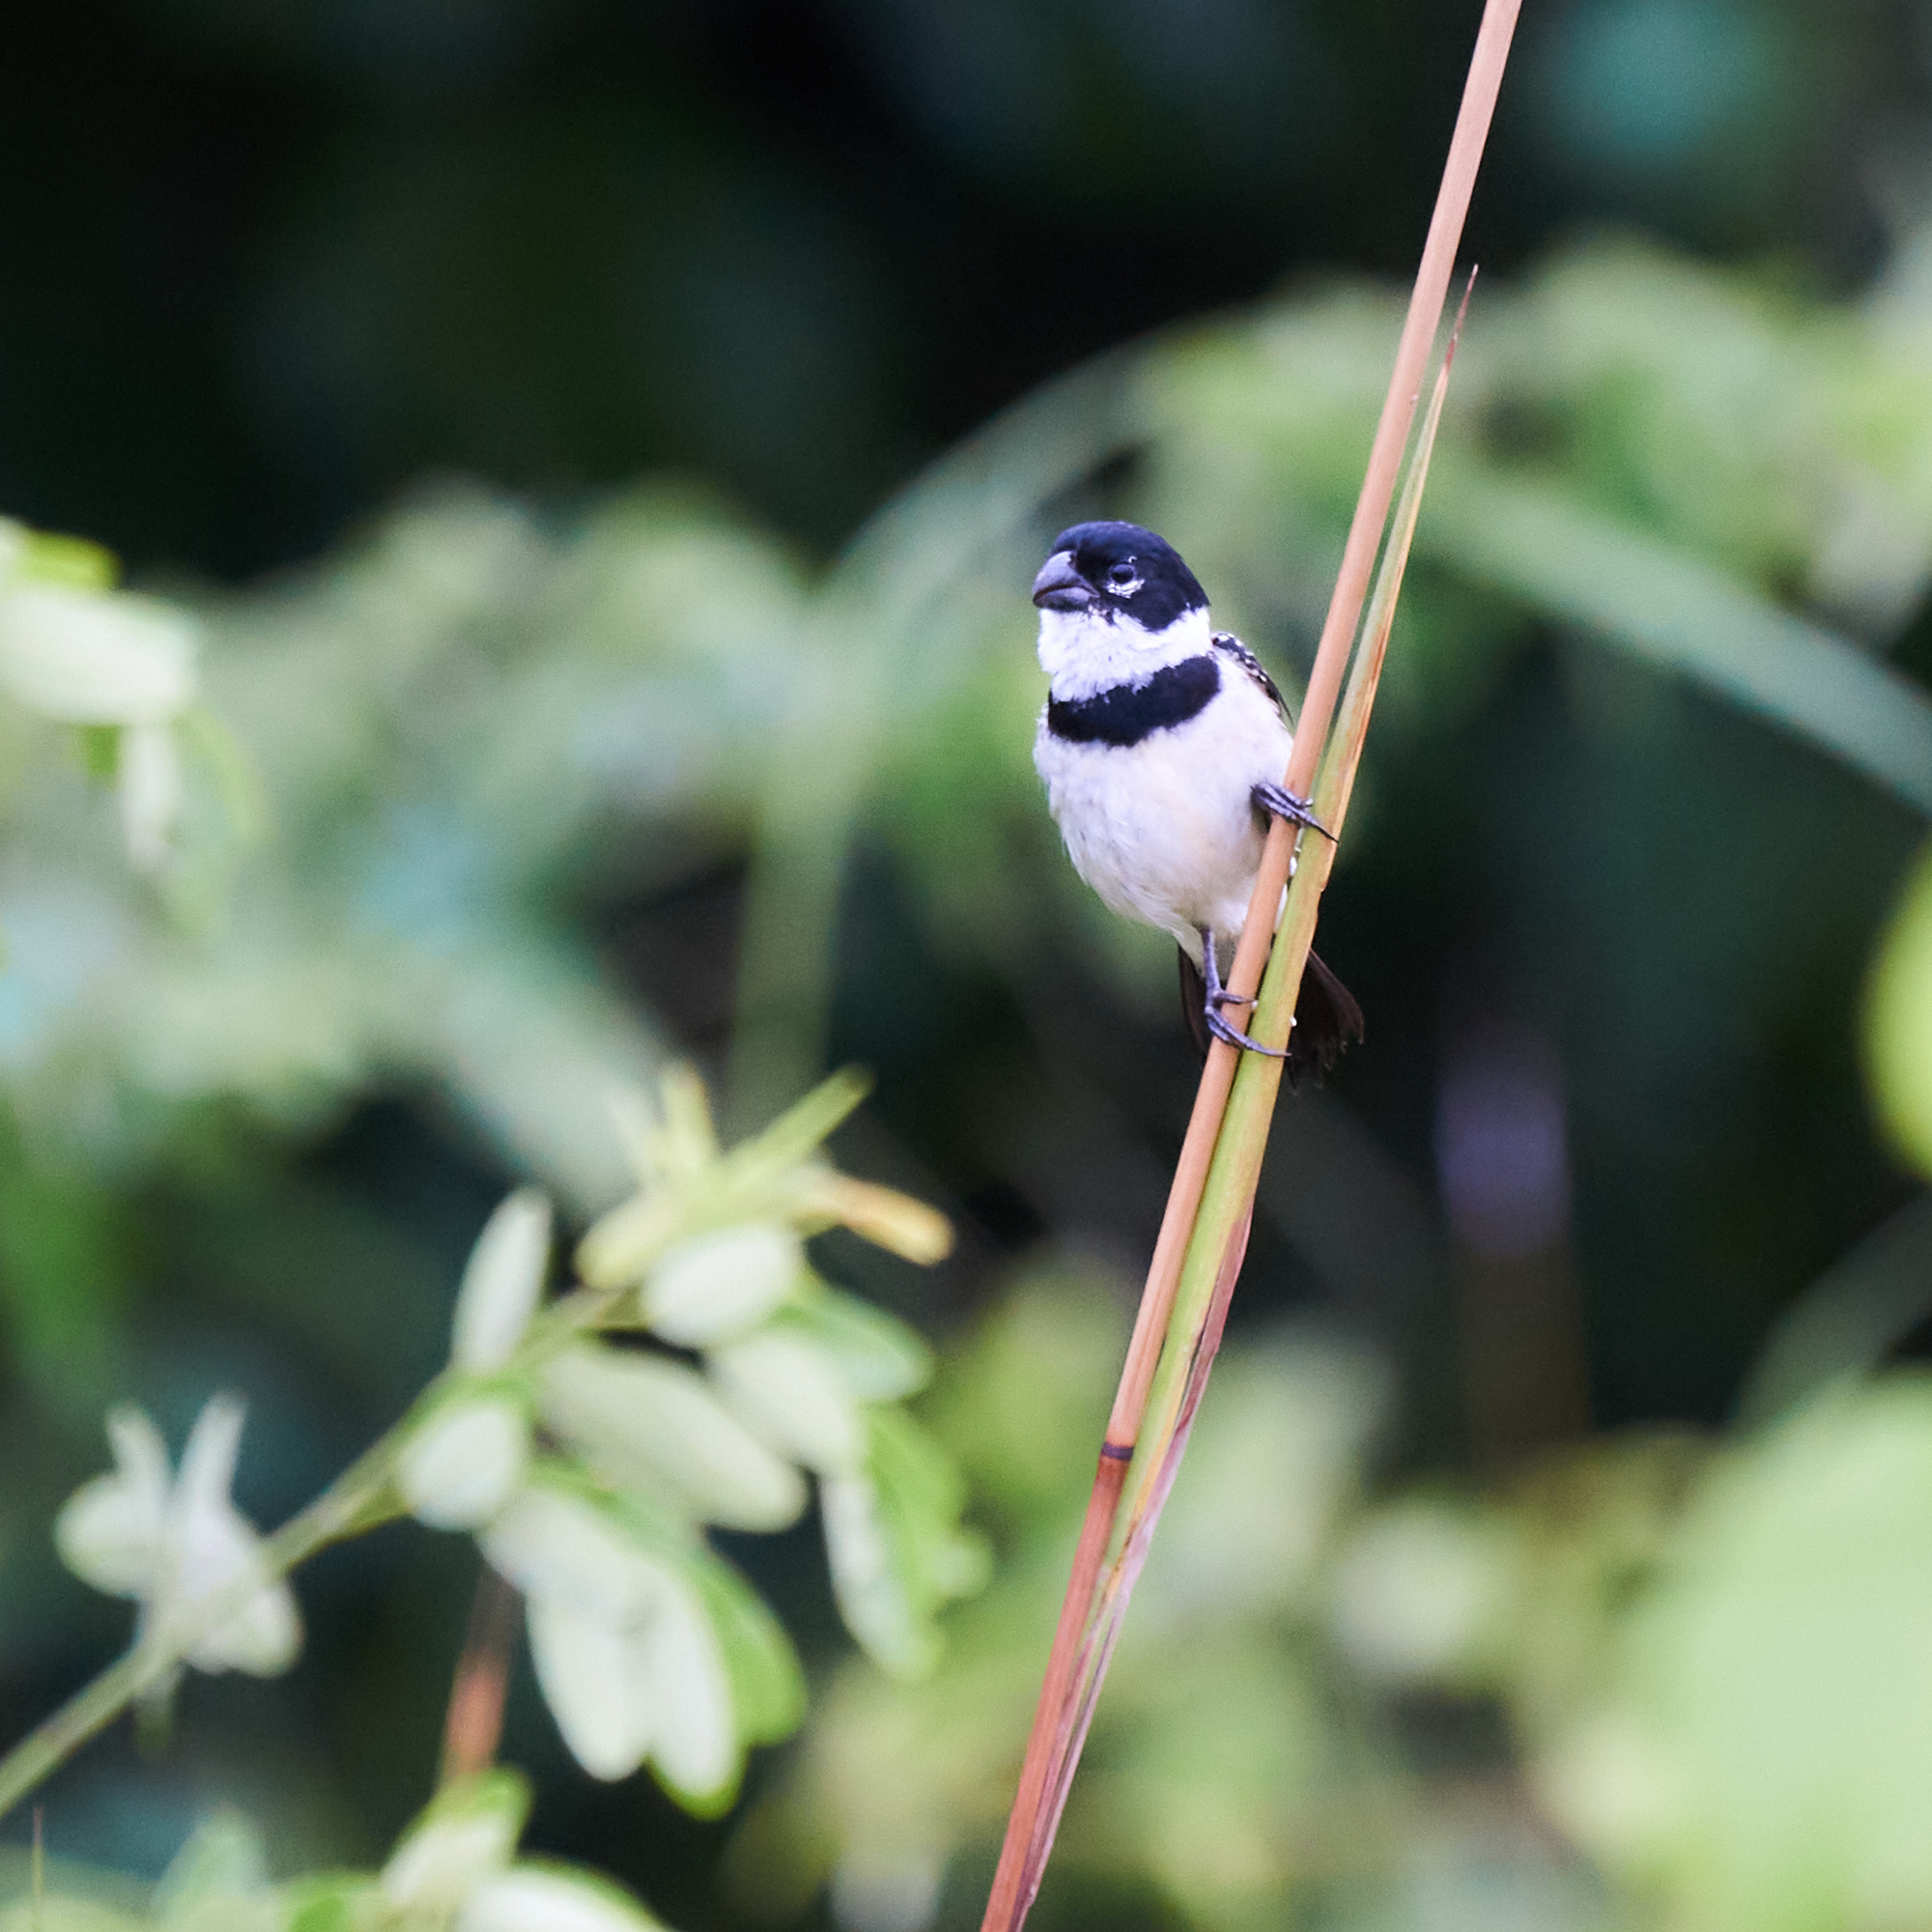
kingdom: Animalia
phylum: Chordata
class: Aves
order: Passeriformes
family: Thraupidae
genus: Sporophila
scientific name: Sporophila morelleti
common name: Morelet's seedeater
